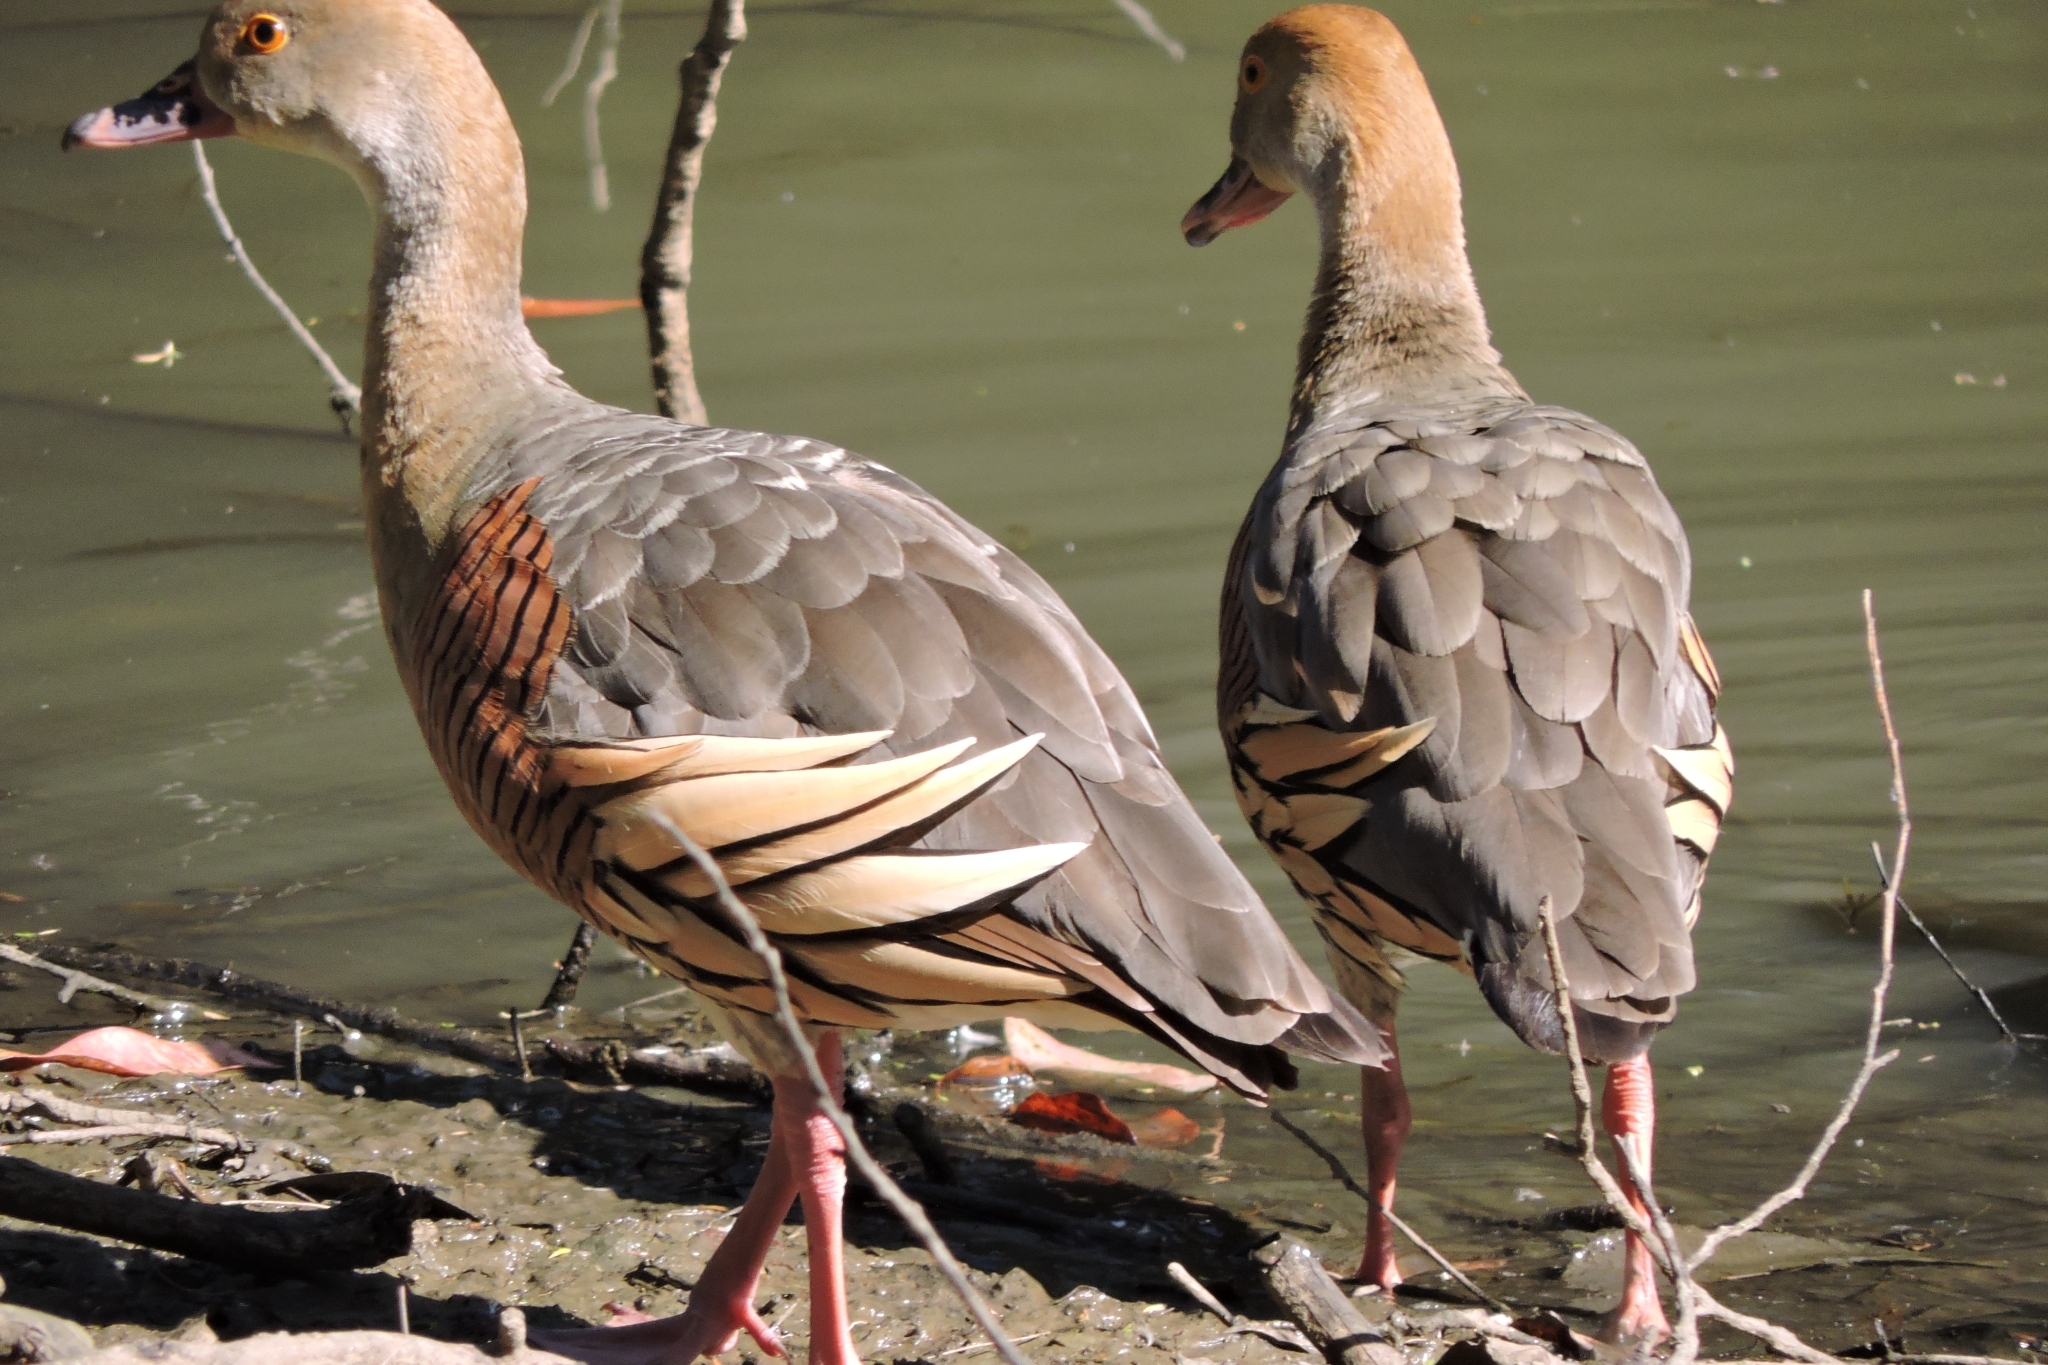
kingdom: Animalia
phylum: Chordata
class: Aves
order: Anseriformes
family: Anatidae
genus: Dendrocygna
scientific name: Dendrocygna eytoni
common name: Plumed whistling-duck
